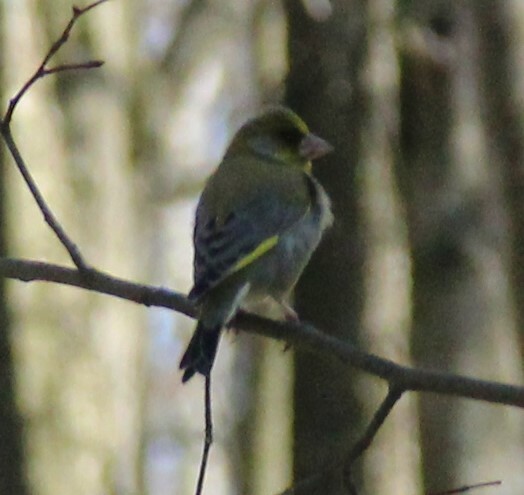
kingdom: Plantae
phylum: Tracheophyta
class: Liliopsida
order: Poales
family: Poaceae
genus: Chloris
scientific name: Chloris chloris
